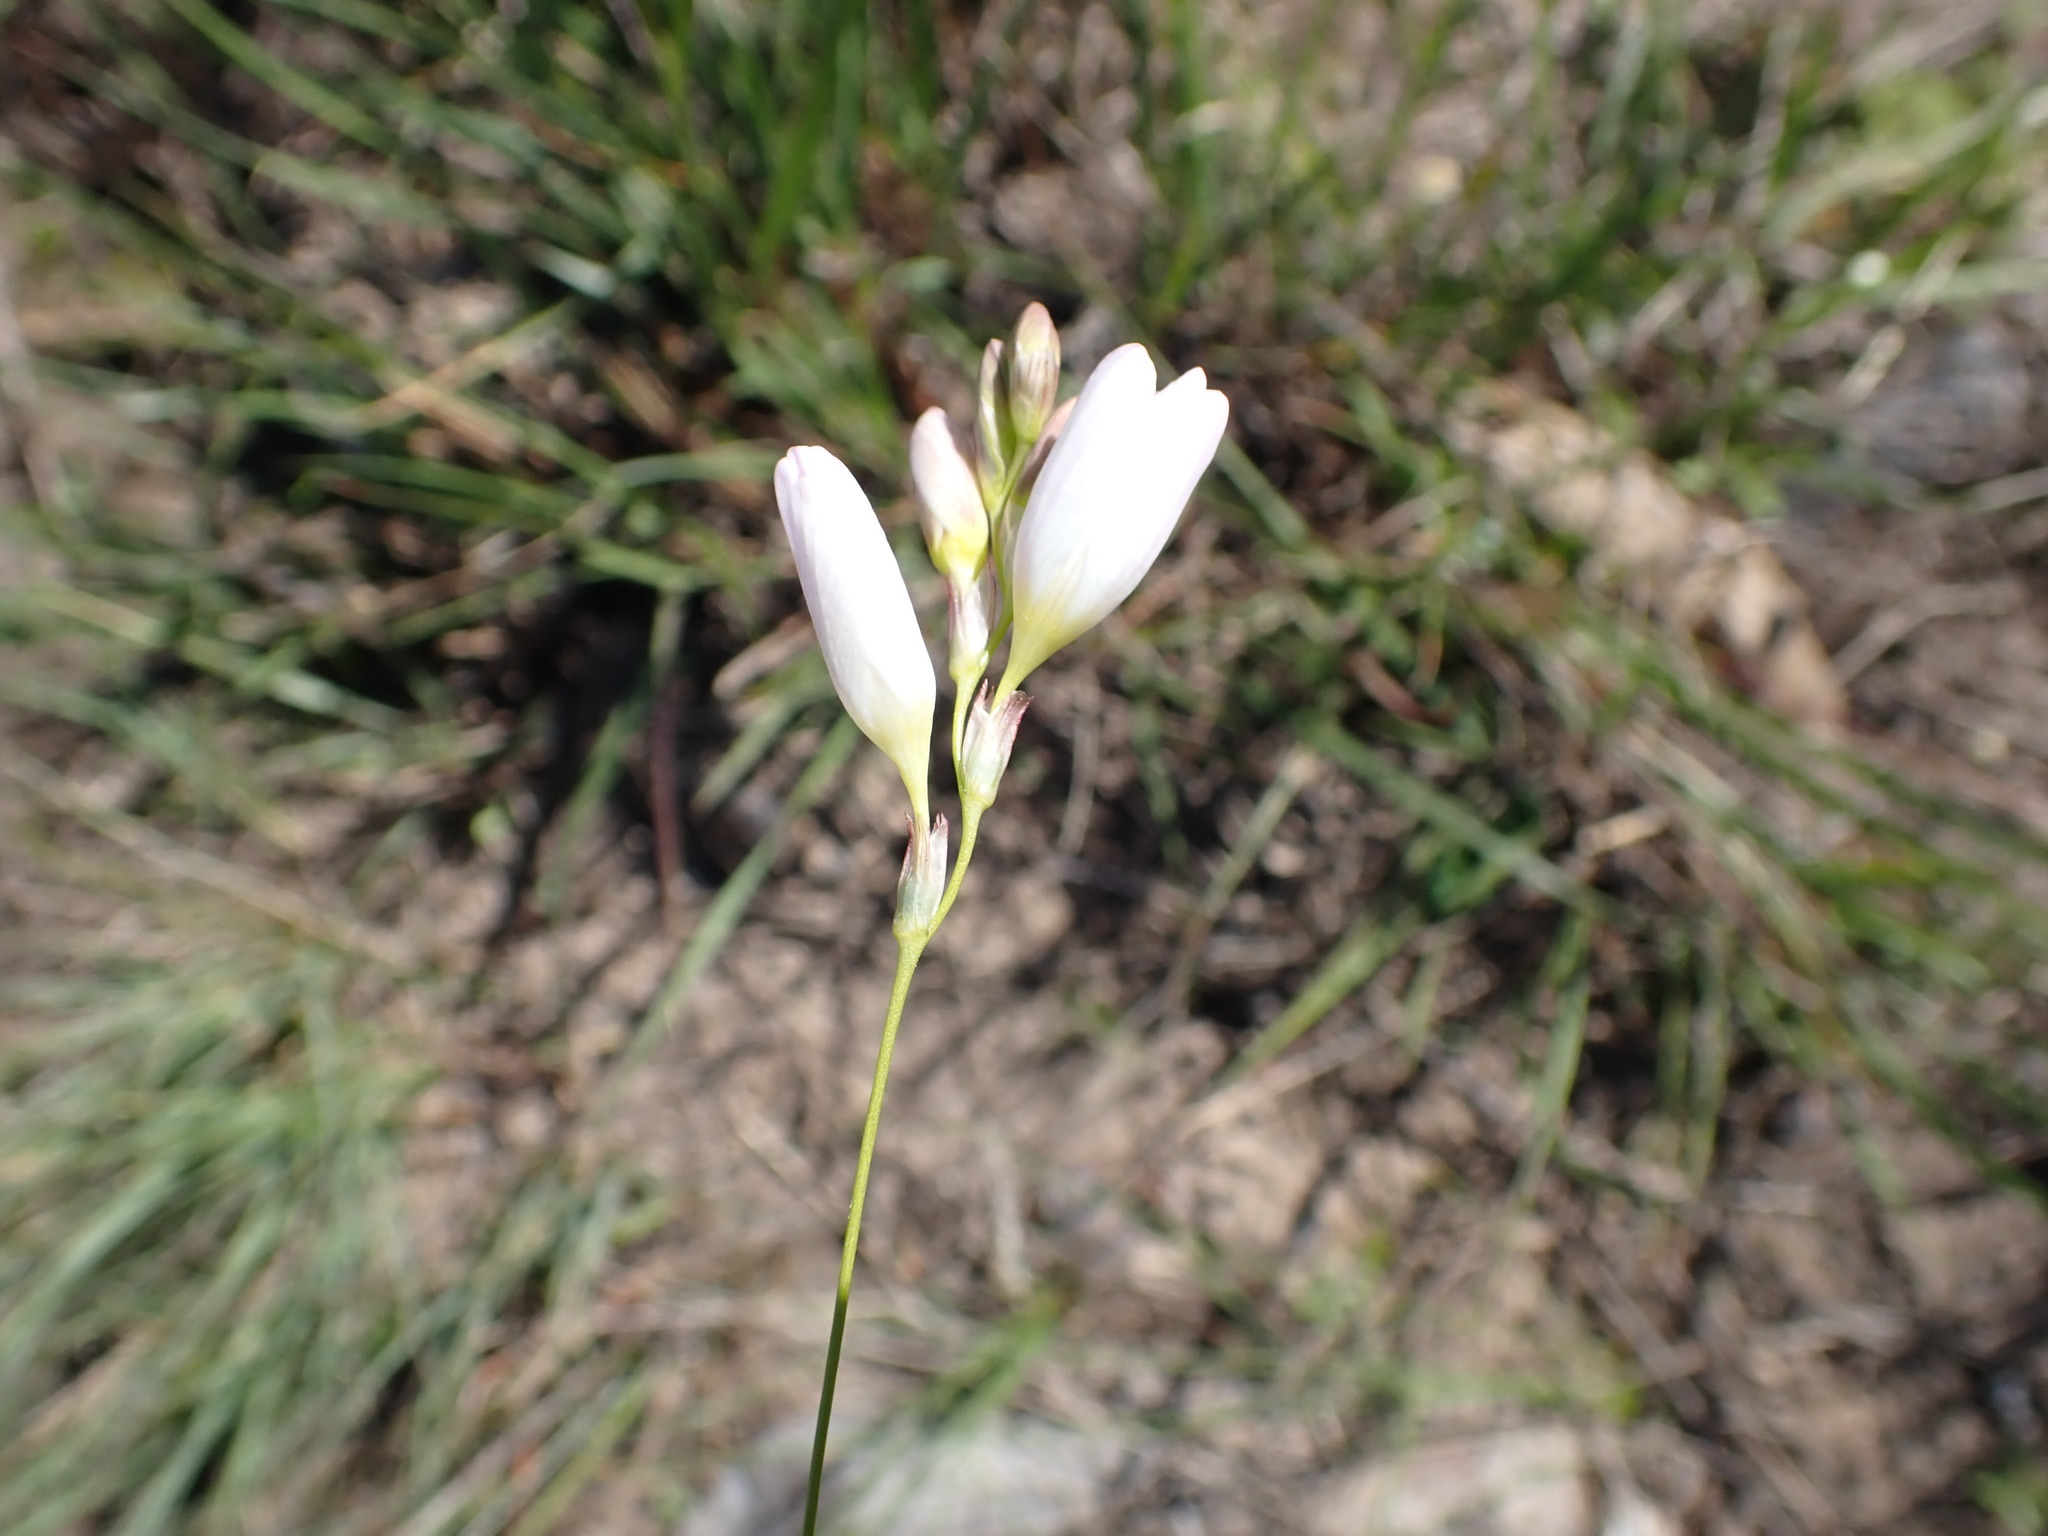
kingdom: Plantae
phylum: Tracheophyta
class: Liliopsida
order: Asparagales
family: Iridaceae
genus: Ixia
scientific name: Ixia orientalis
